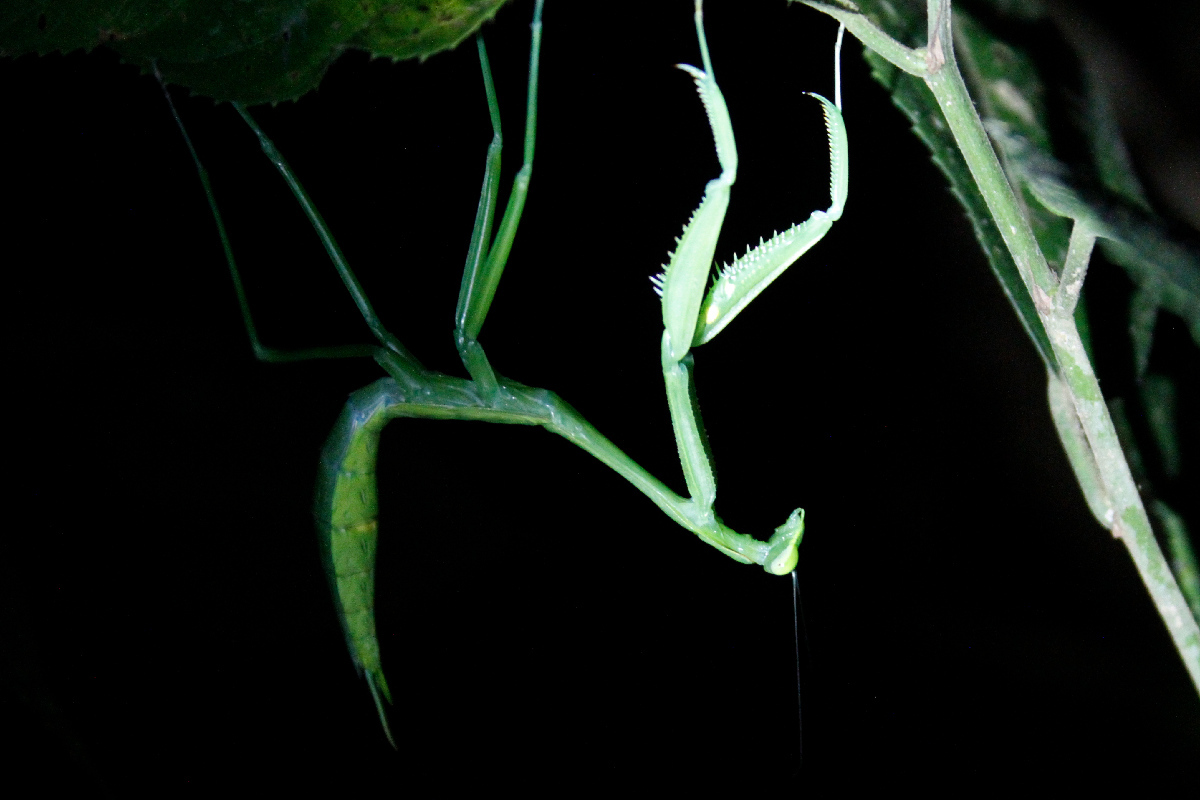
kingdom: Animalia
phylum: Arthropoda
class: Insecta
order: Mantodea
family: Photinaidae
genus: Macromantis
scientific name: Macromantis nicaraguae
